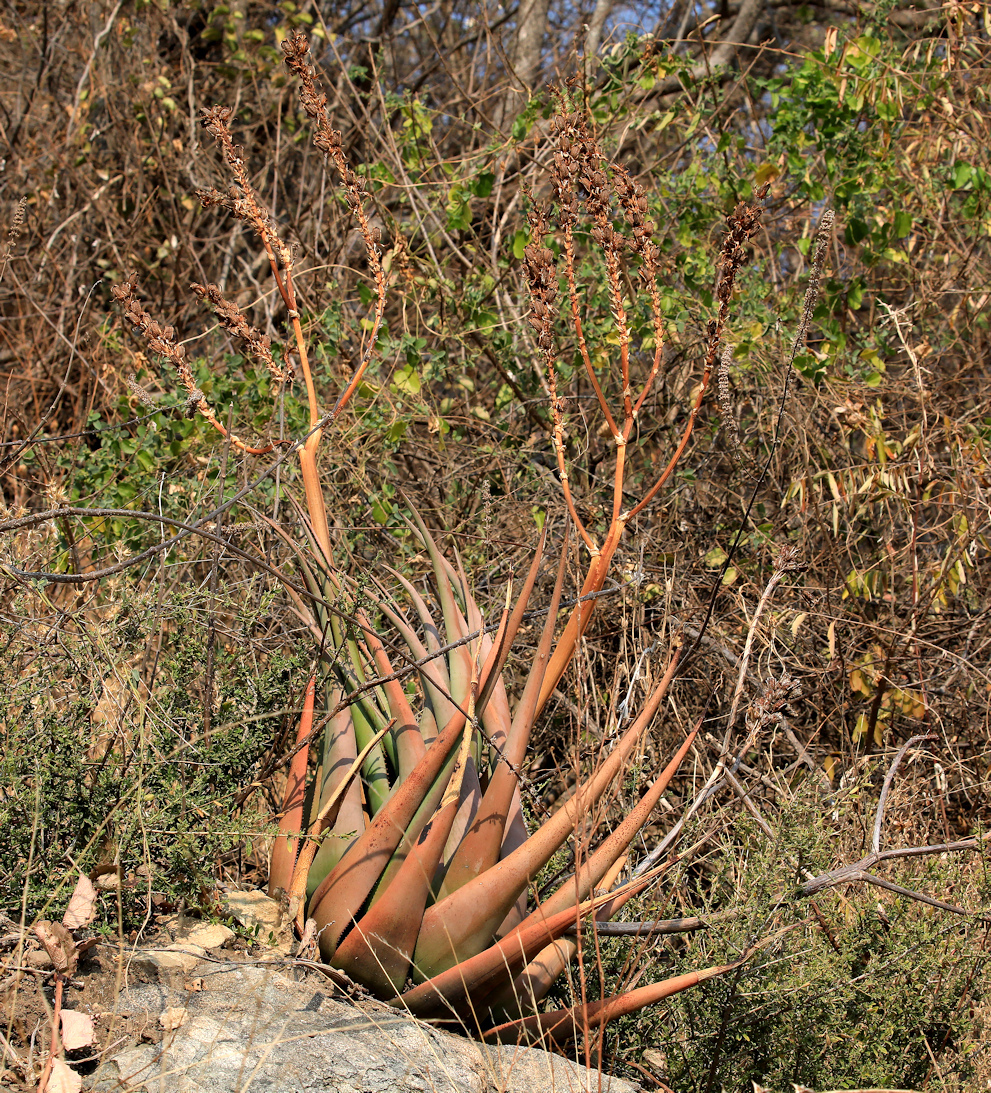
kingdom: Plantae
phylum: Tracheophyta
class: Liliopsida
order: Asparagales
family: Asphodelaceae
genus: Aloe
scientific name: Aloe lutescens
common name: Malapati aloe
